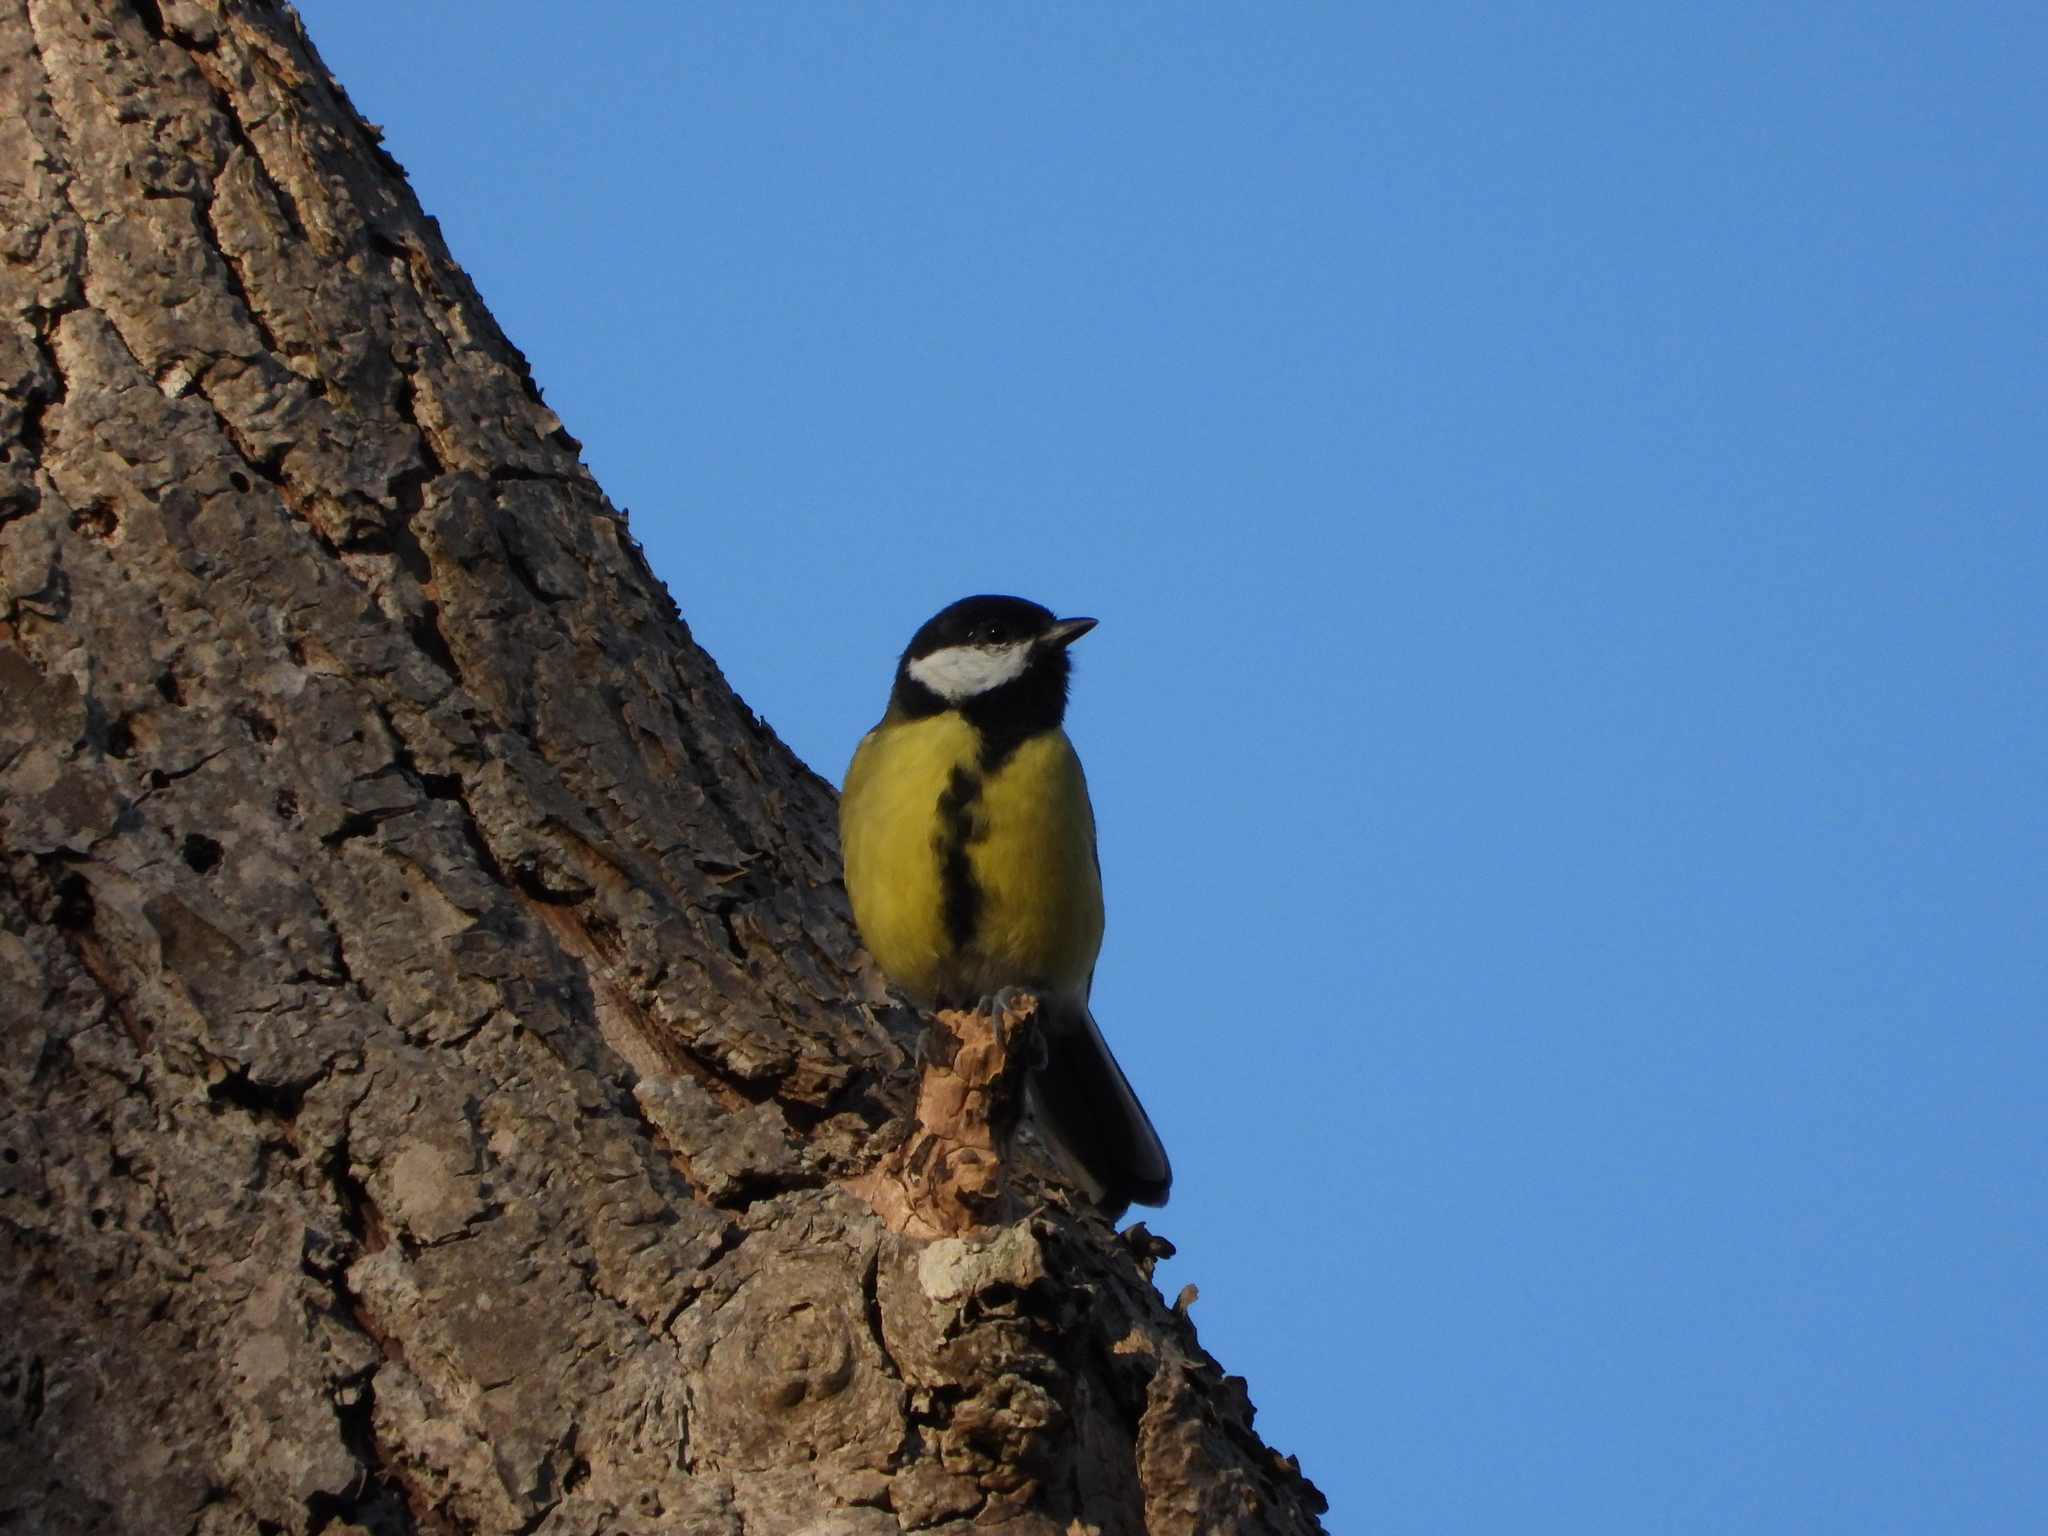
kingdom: Animalia
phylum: Chordata
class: Aves
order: Passeriformes
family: Paridae
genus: Parus
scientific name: Parus major
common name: Great tit
